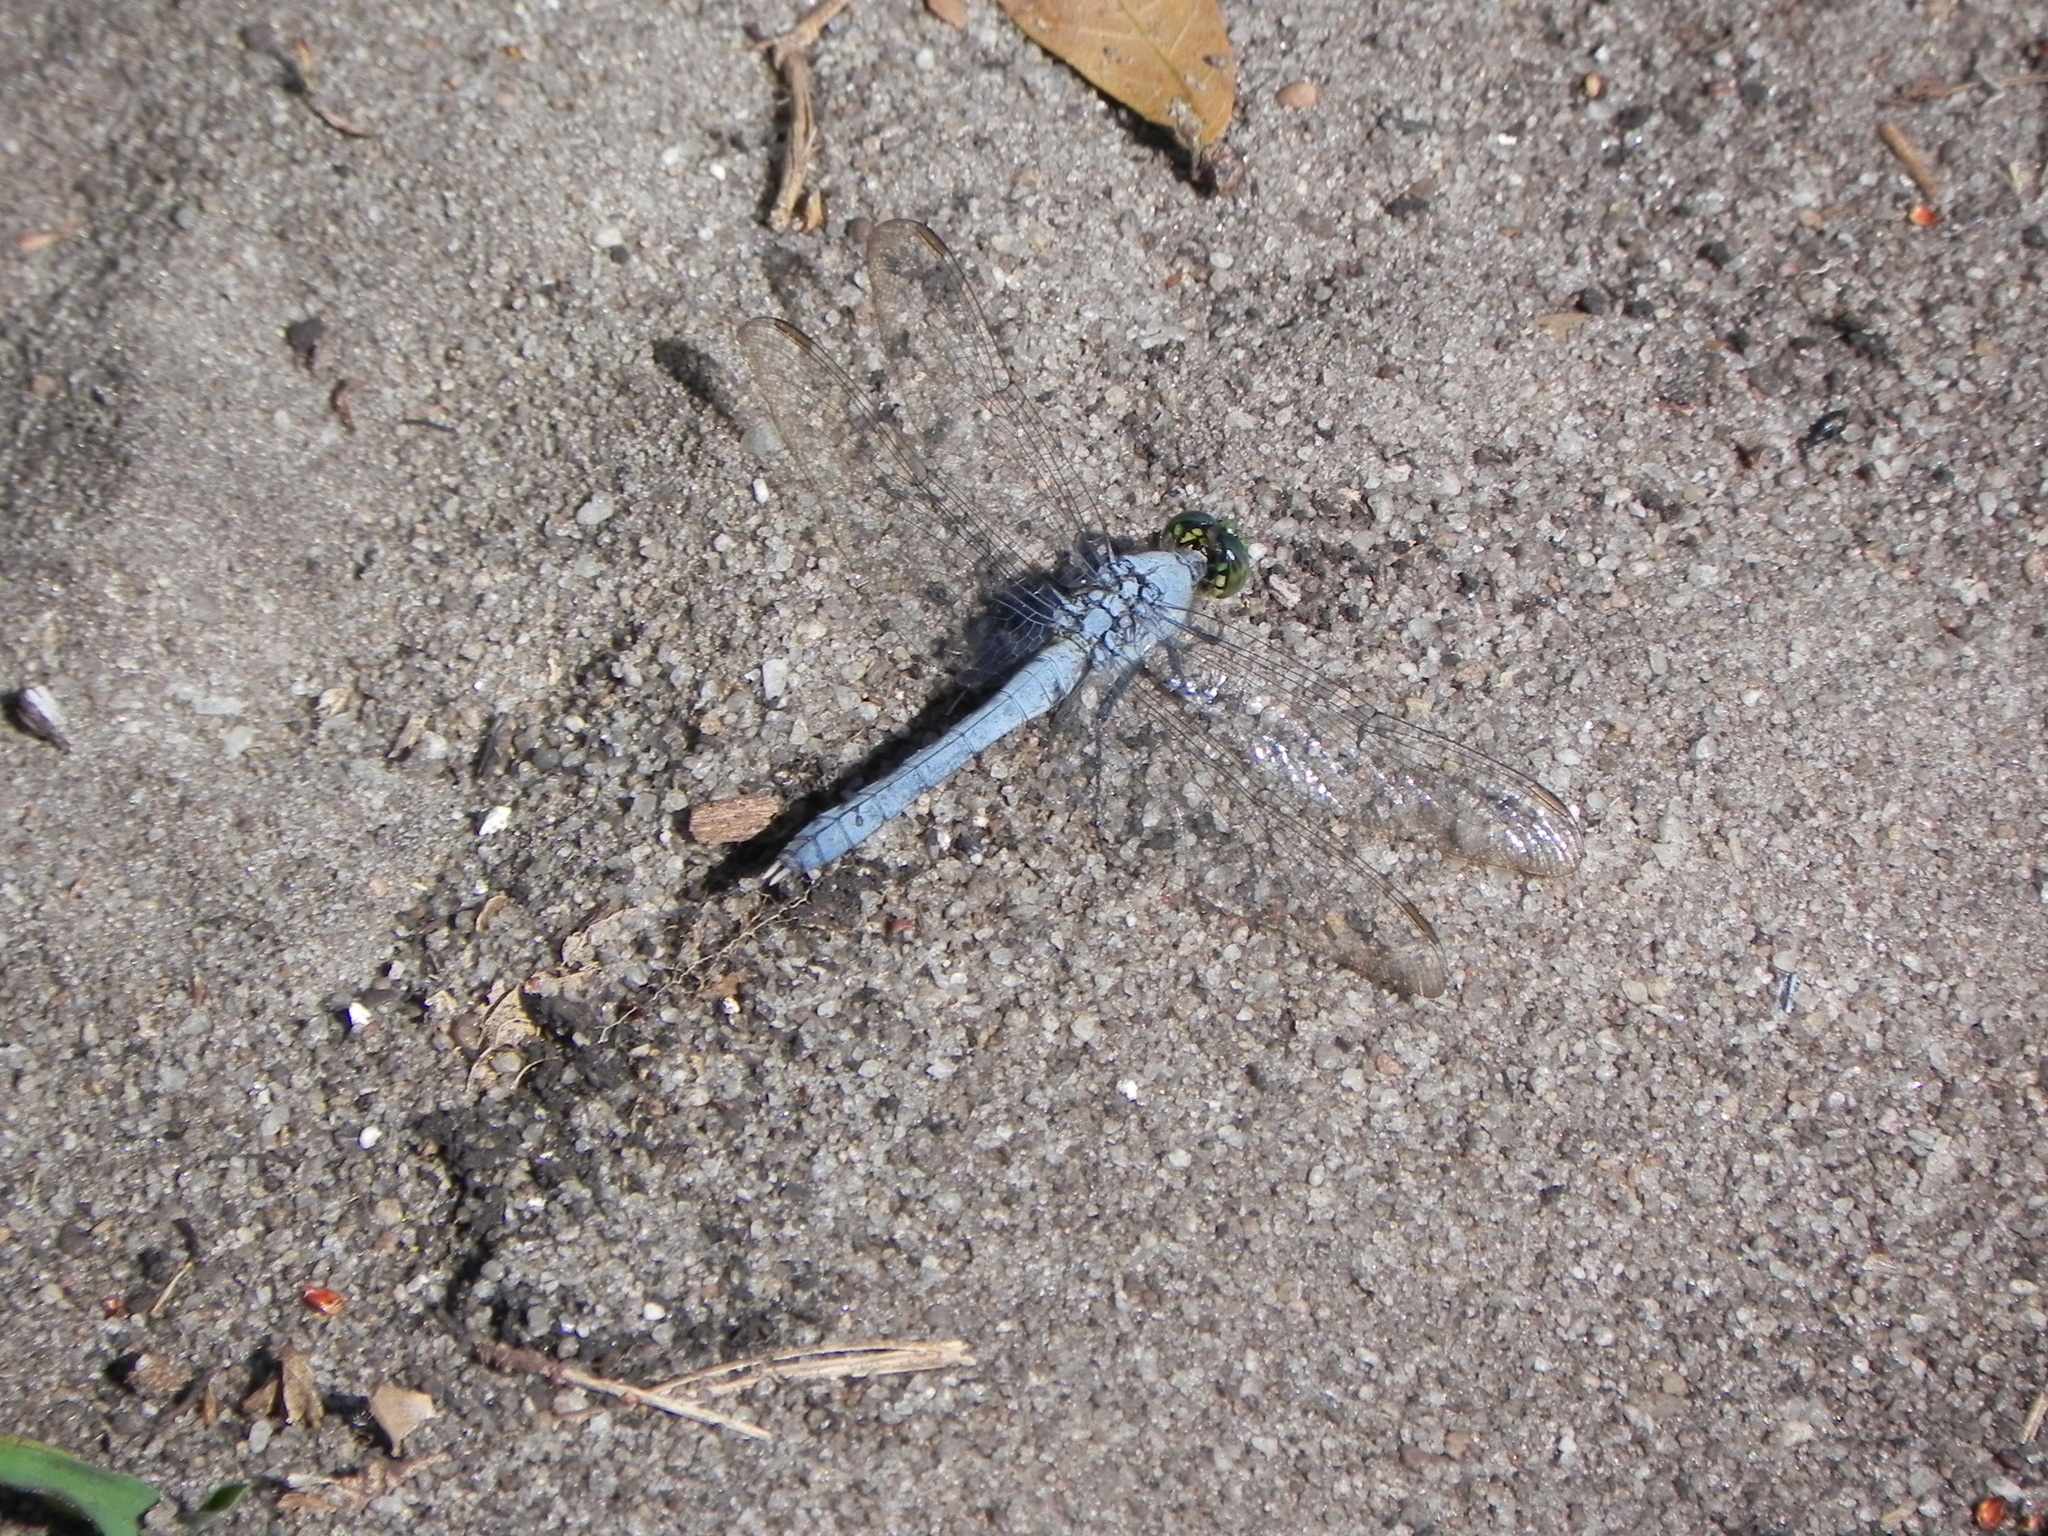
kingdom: Animalia
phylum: Arthropoda
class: Insecta
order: Odonata
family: Libellulidae
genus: Erythemis
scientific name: Erythemis simplicicollis
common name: Eastern pondhawk
